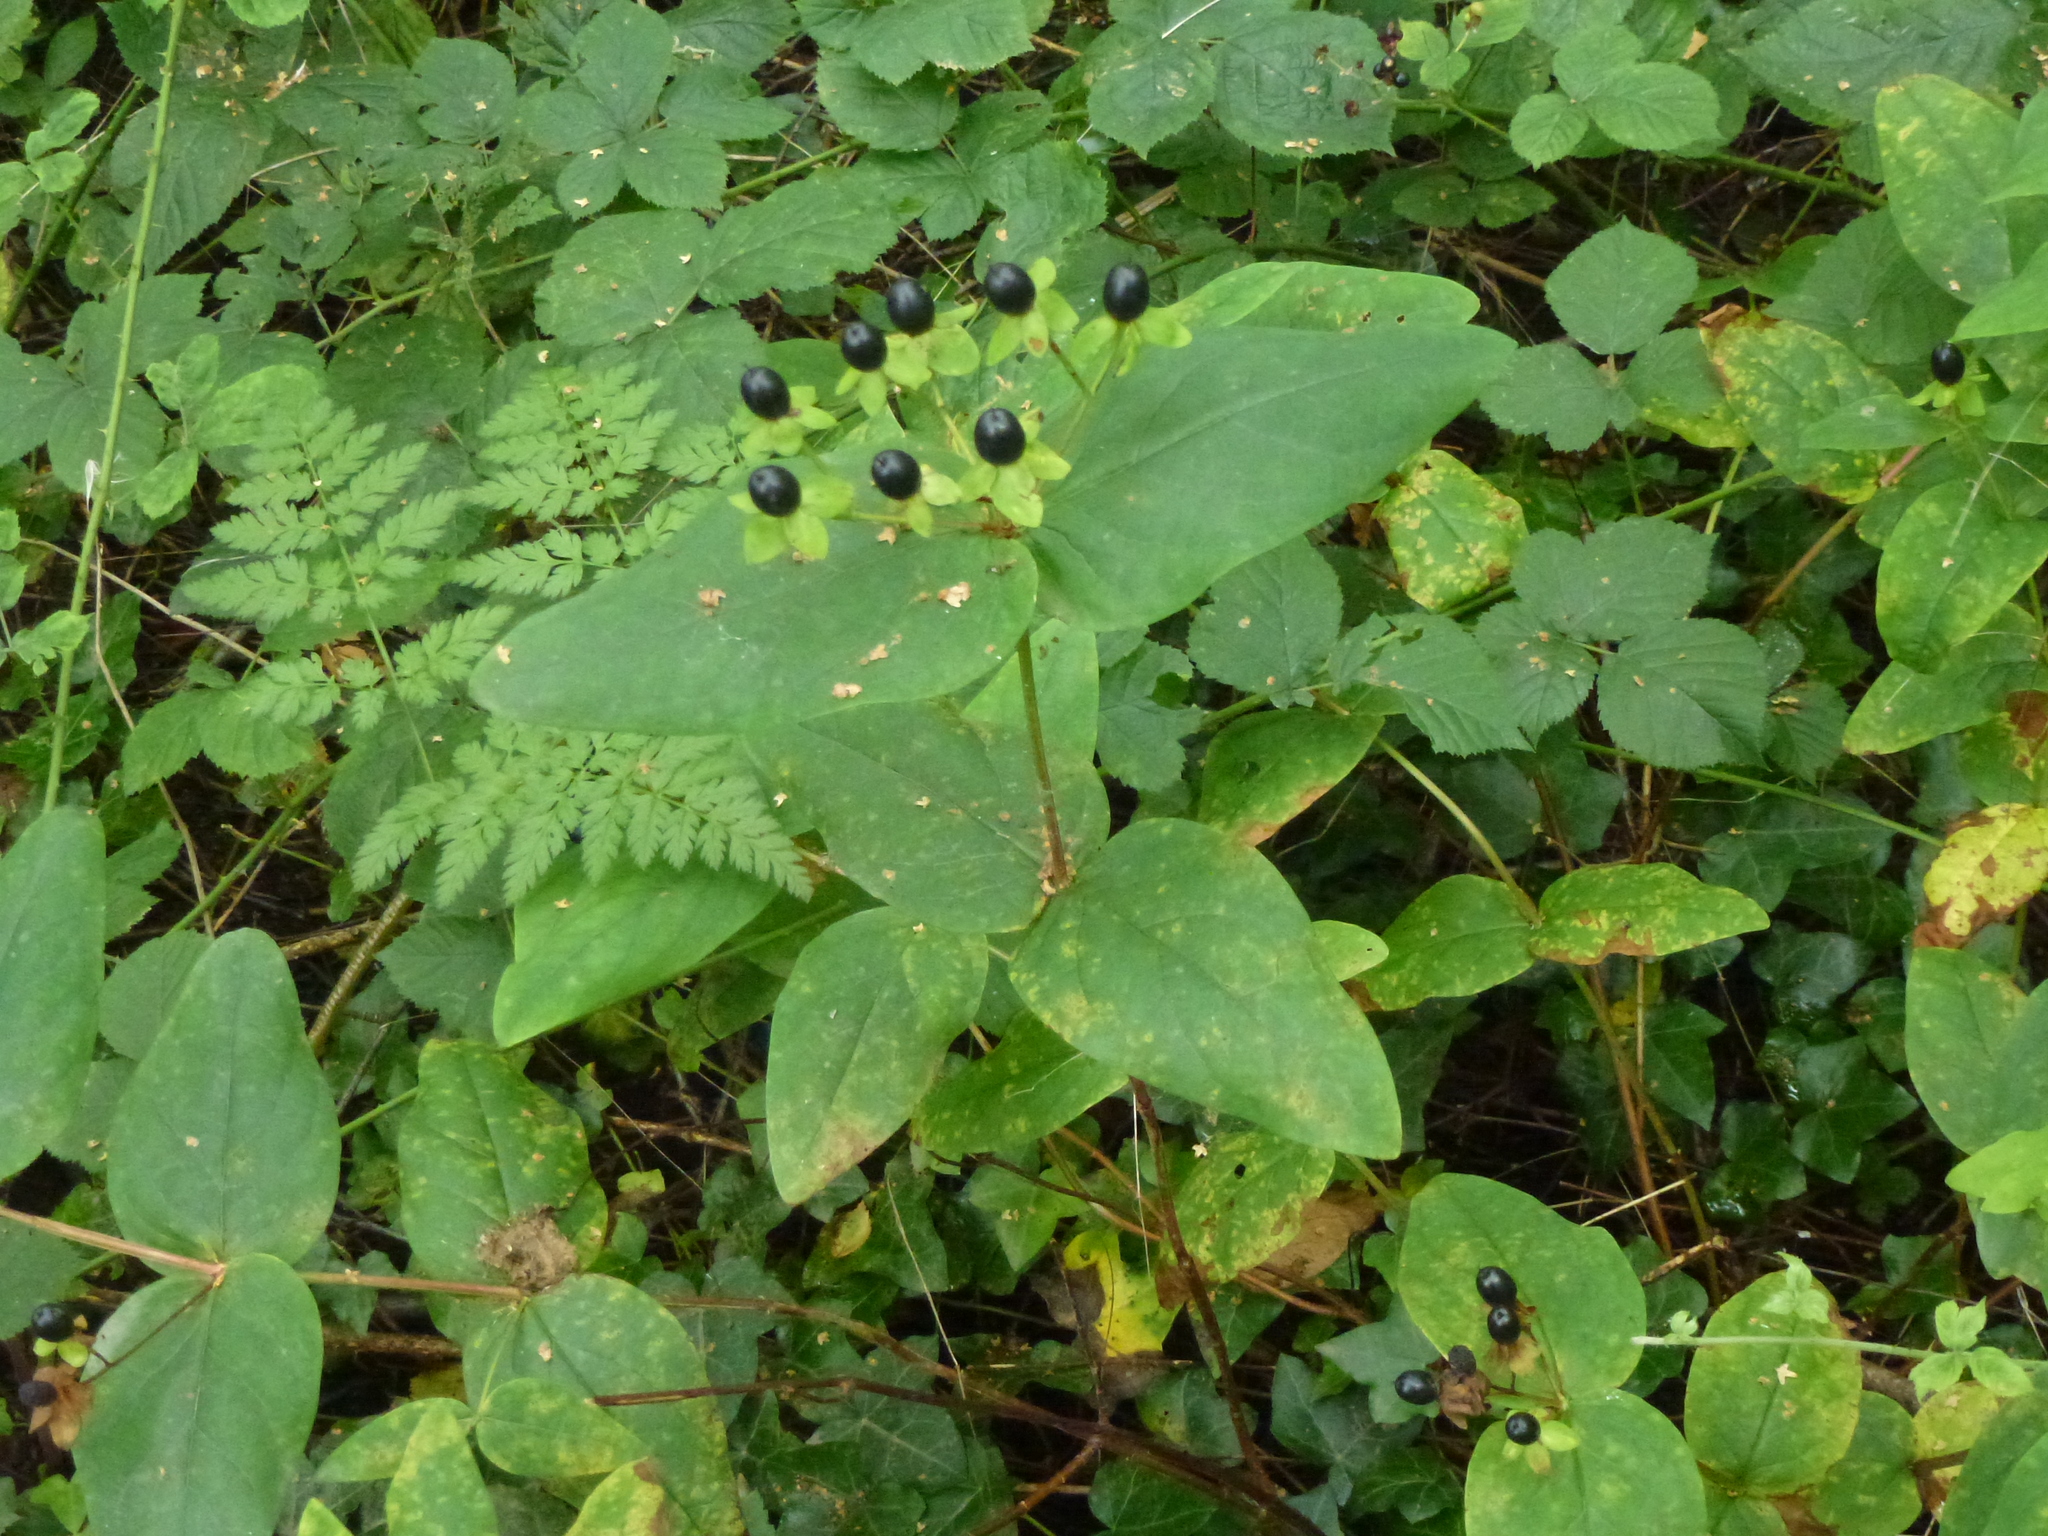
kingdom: Plantae
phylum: Tracheophyta
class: Magnoliopsida
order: Malpighiales
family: Hypericaceae
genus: Hypericum
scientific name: Hypericum androsaemum
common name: Sweet-amber
